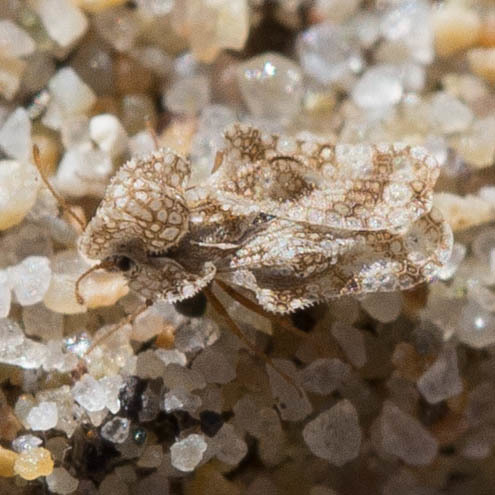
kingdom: Animalia
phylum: Arthropoda
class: Insecta
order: Hemiptera
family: Tingidae
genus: Corythucha
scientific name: Corythucha morrilli
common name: Morrill lace bug
